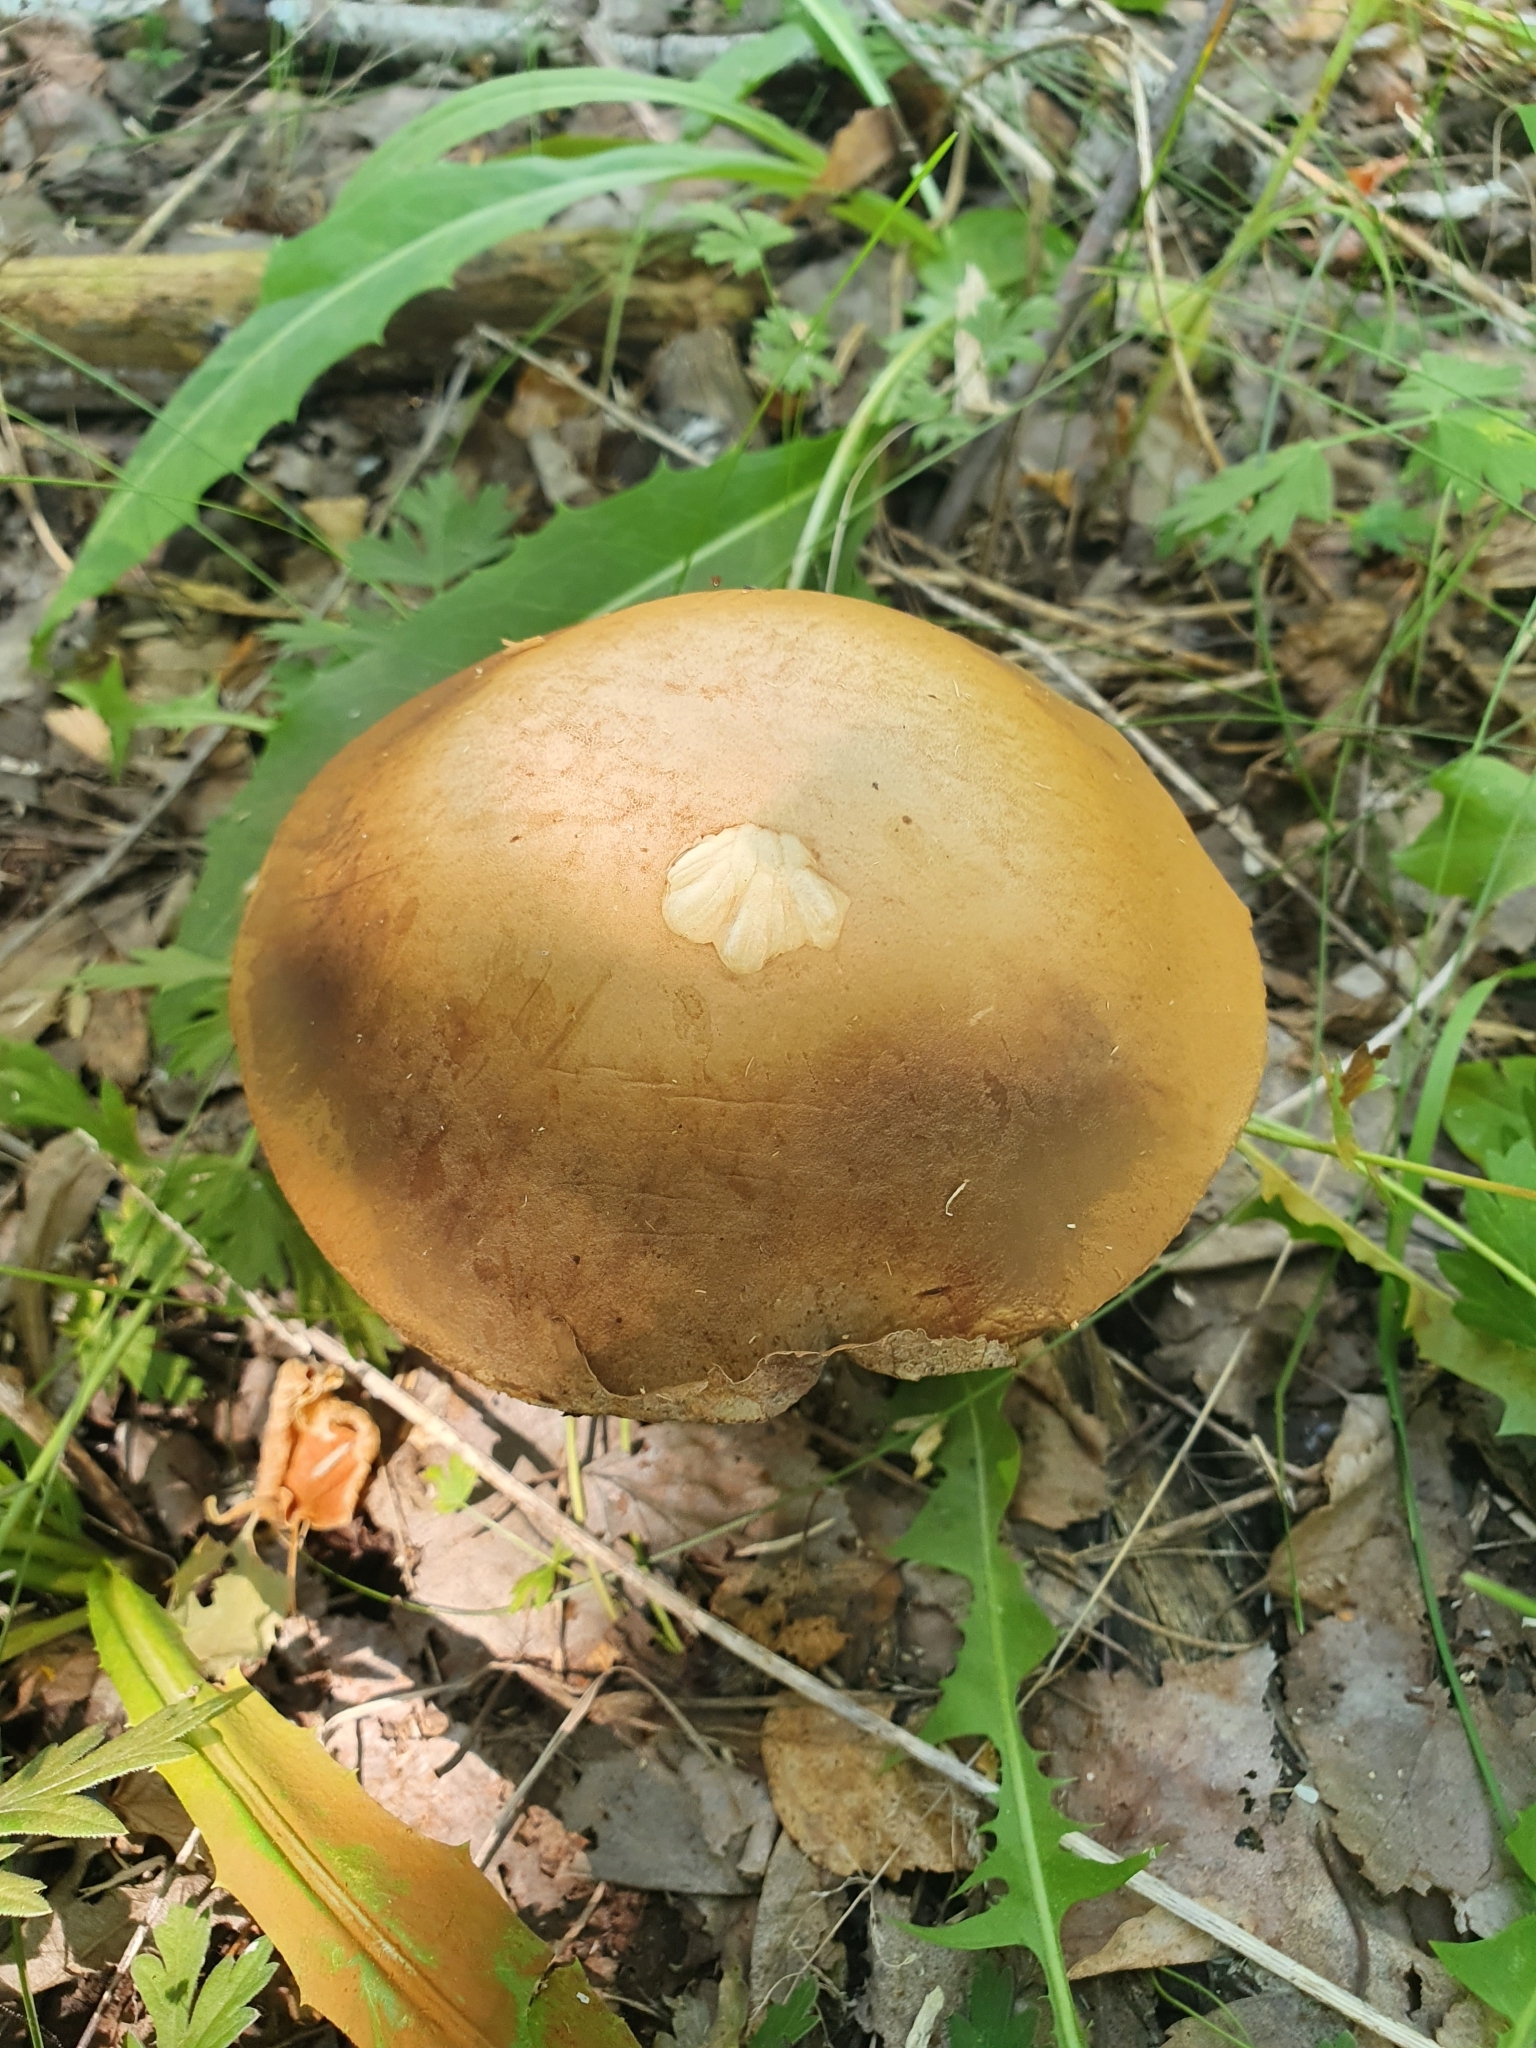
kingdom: Fungi
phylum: Basidiomycota
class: Agaricomycetes
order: Boletales
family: Boletaceae
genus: Leccinum
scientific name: Leccinum scabrum
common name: Blushing bolete
